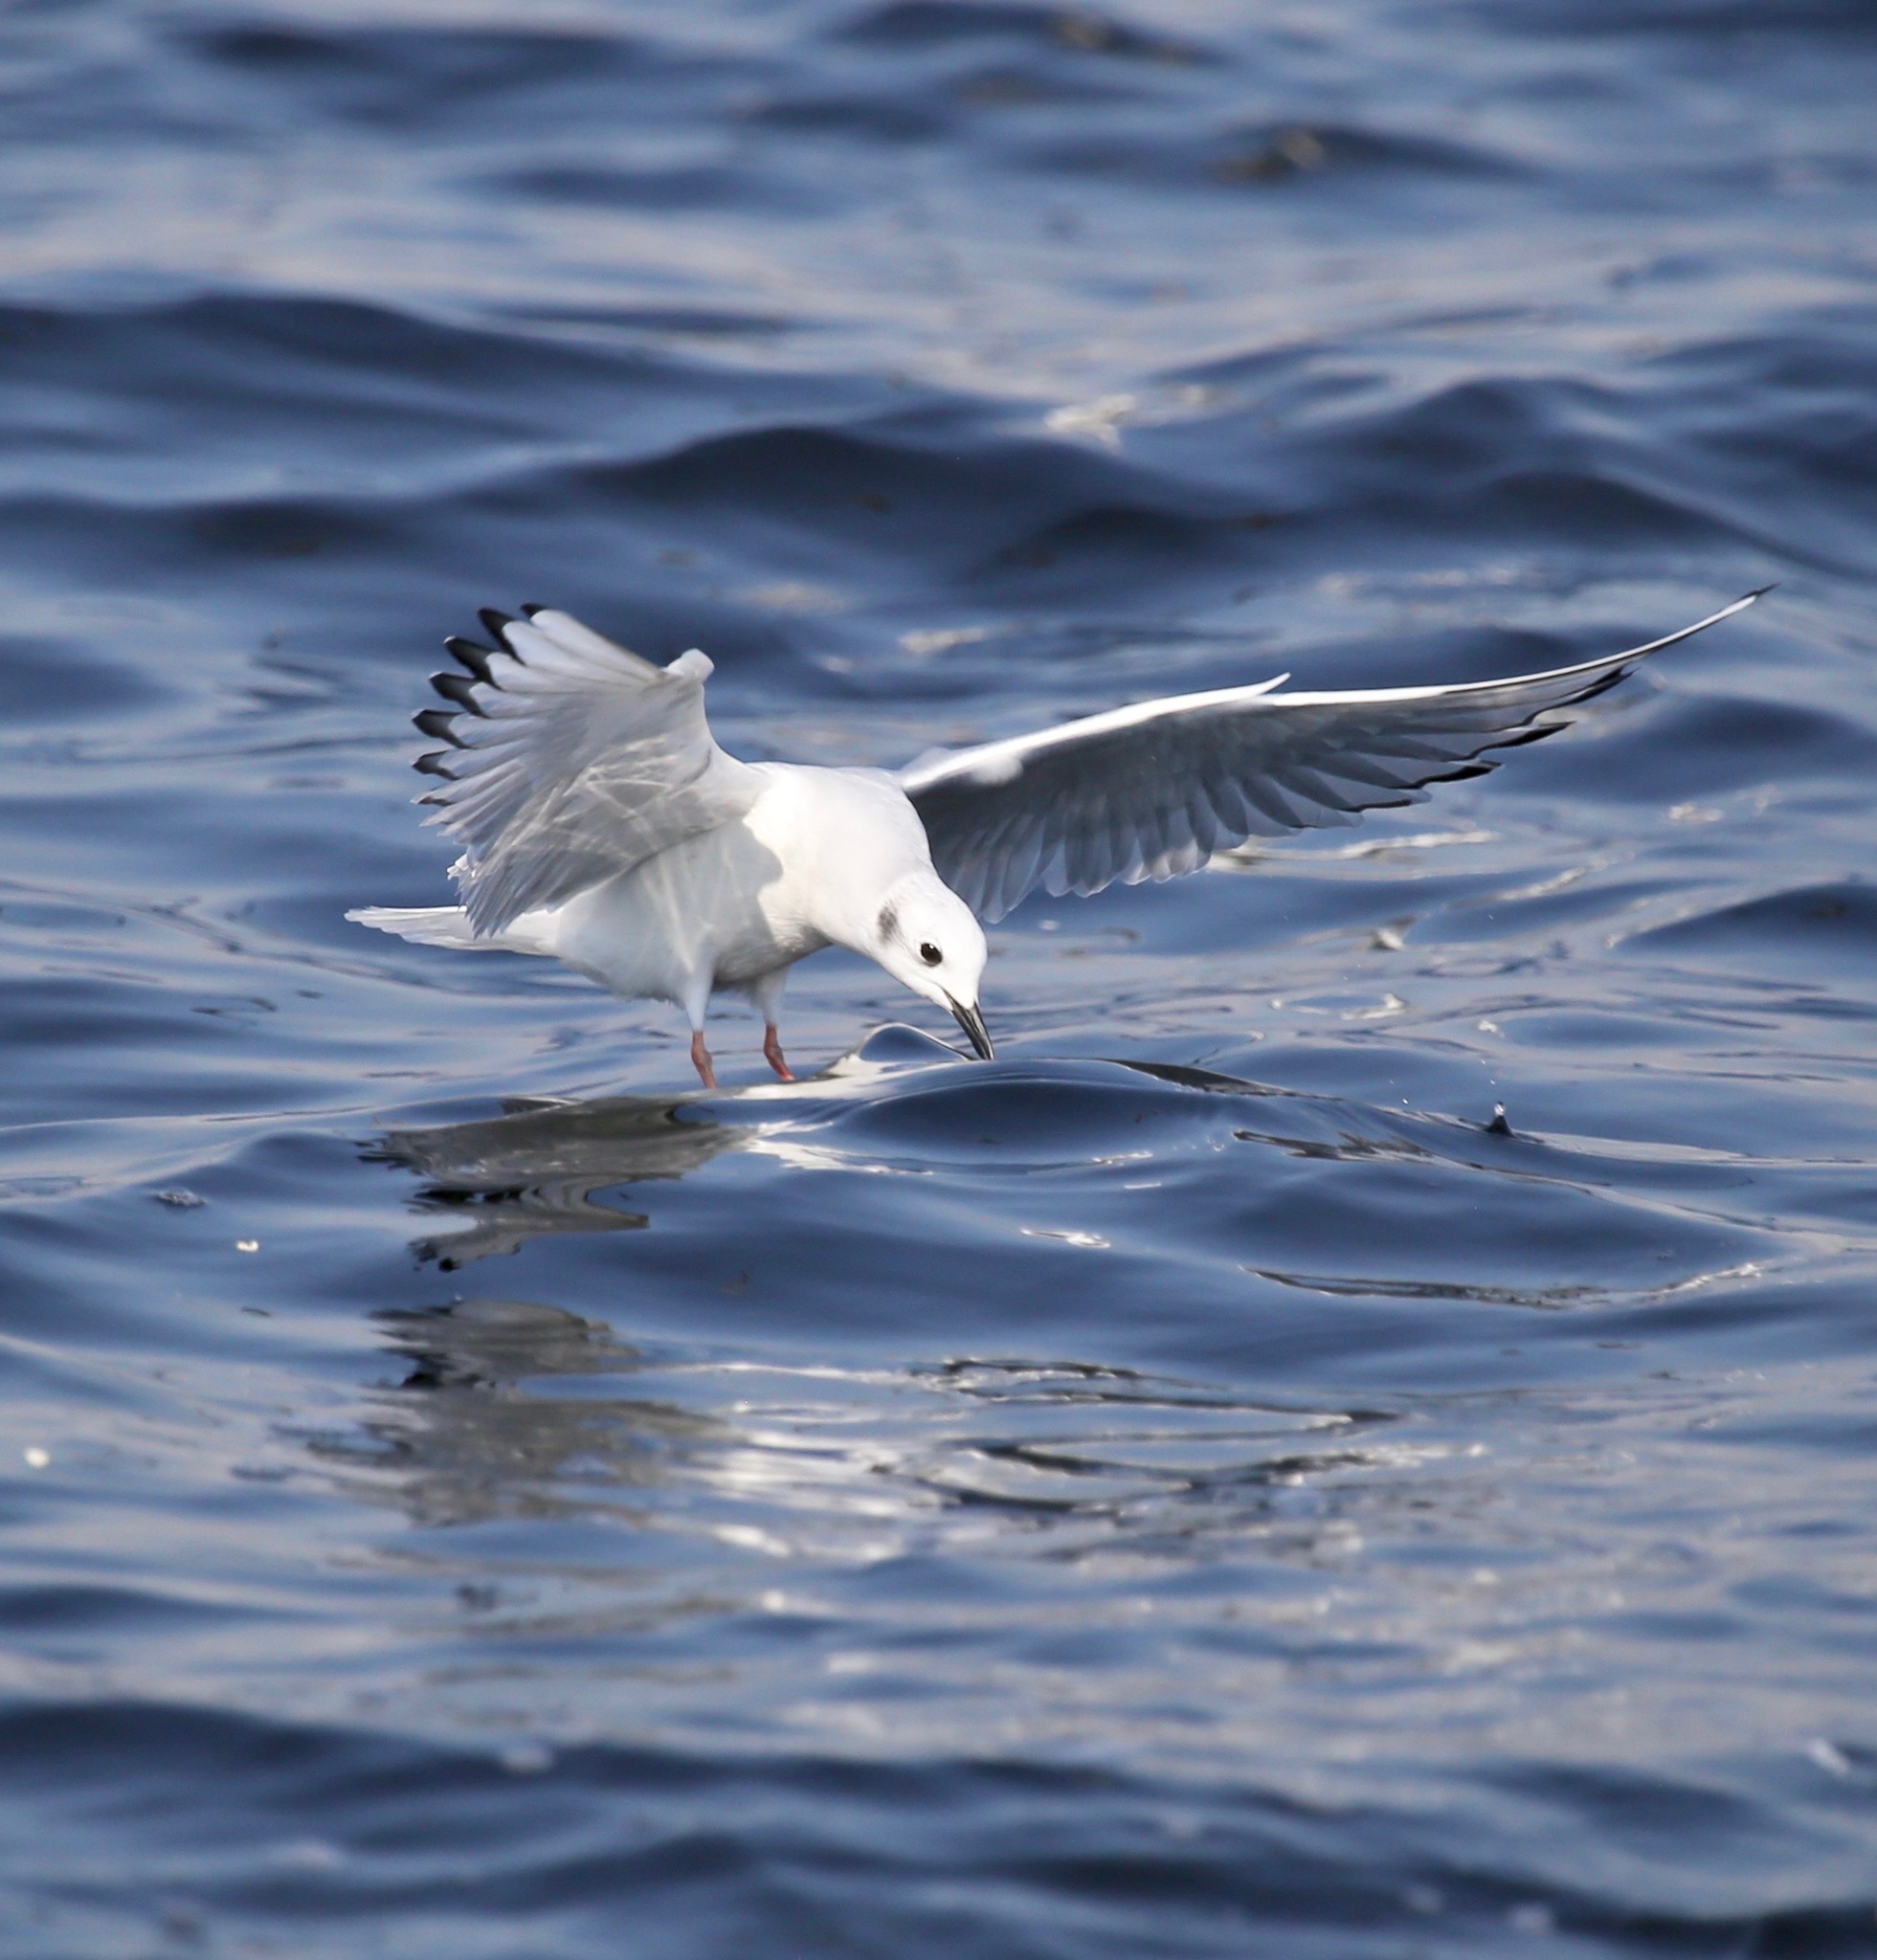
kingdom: Animalia
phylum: Chordata
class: Aves
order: Charadriiformes
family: Laridae
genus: Chroicocephalus
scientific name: Chroicocephalus philadelphia
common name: Bonaparte's gull
